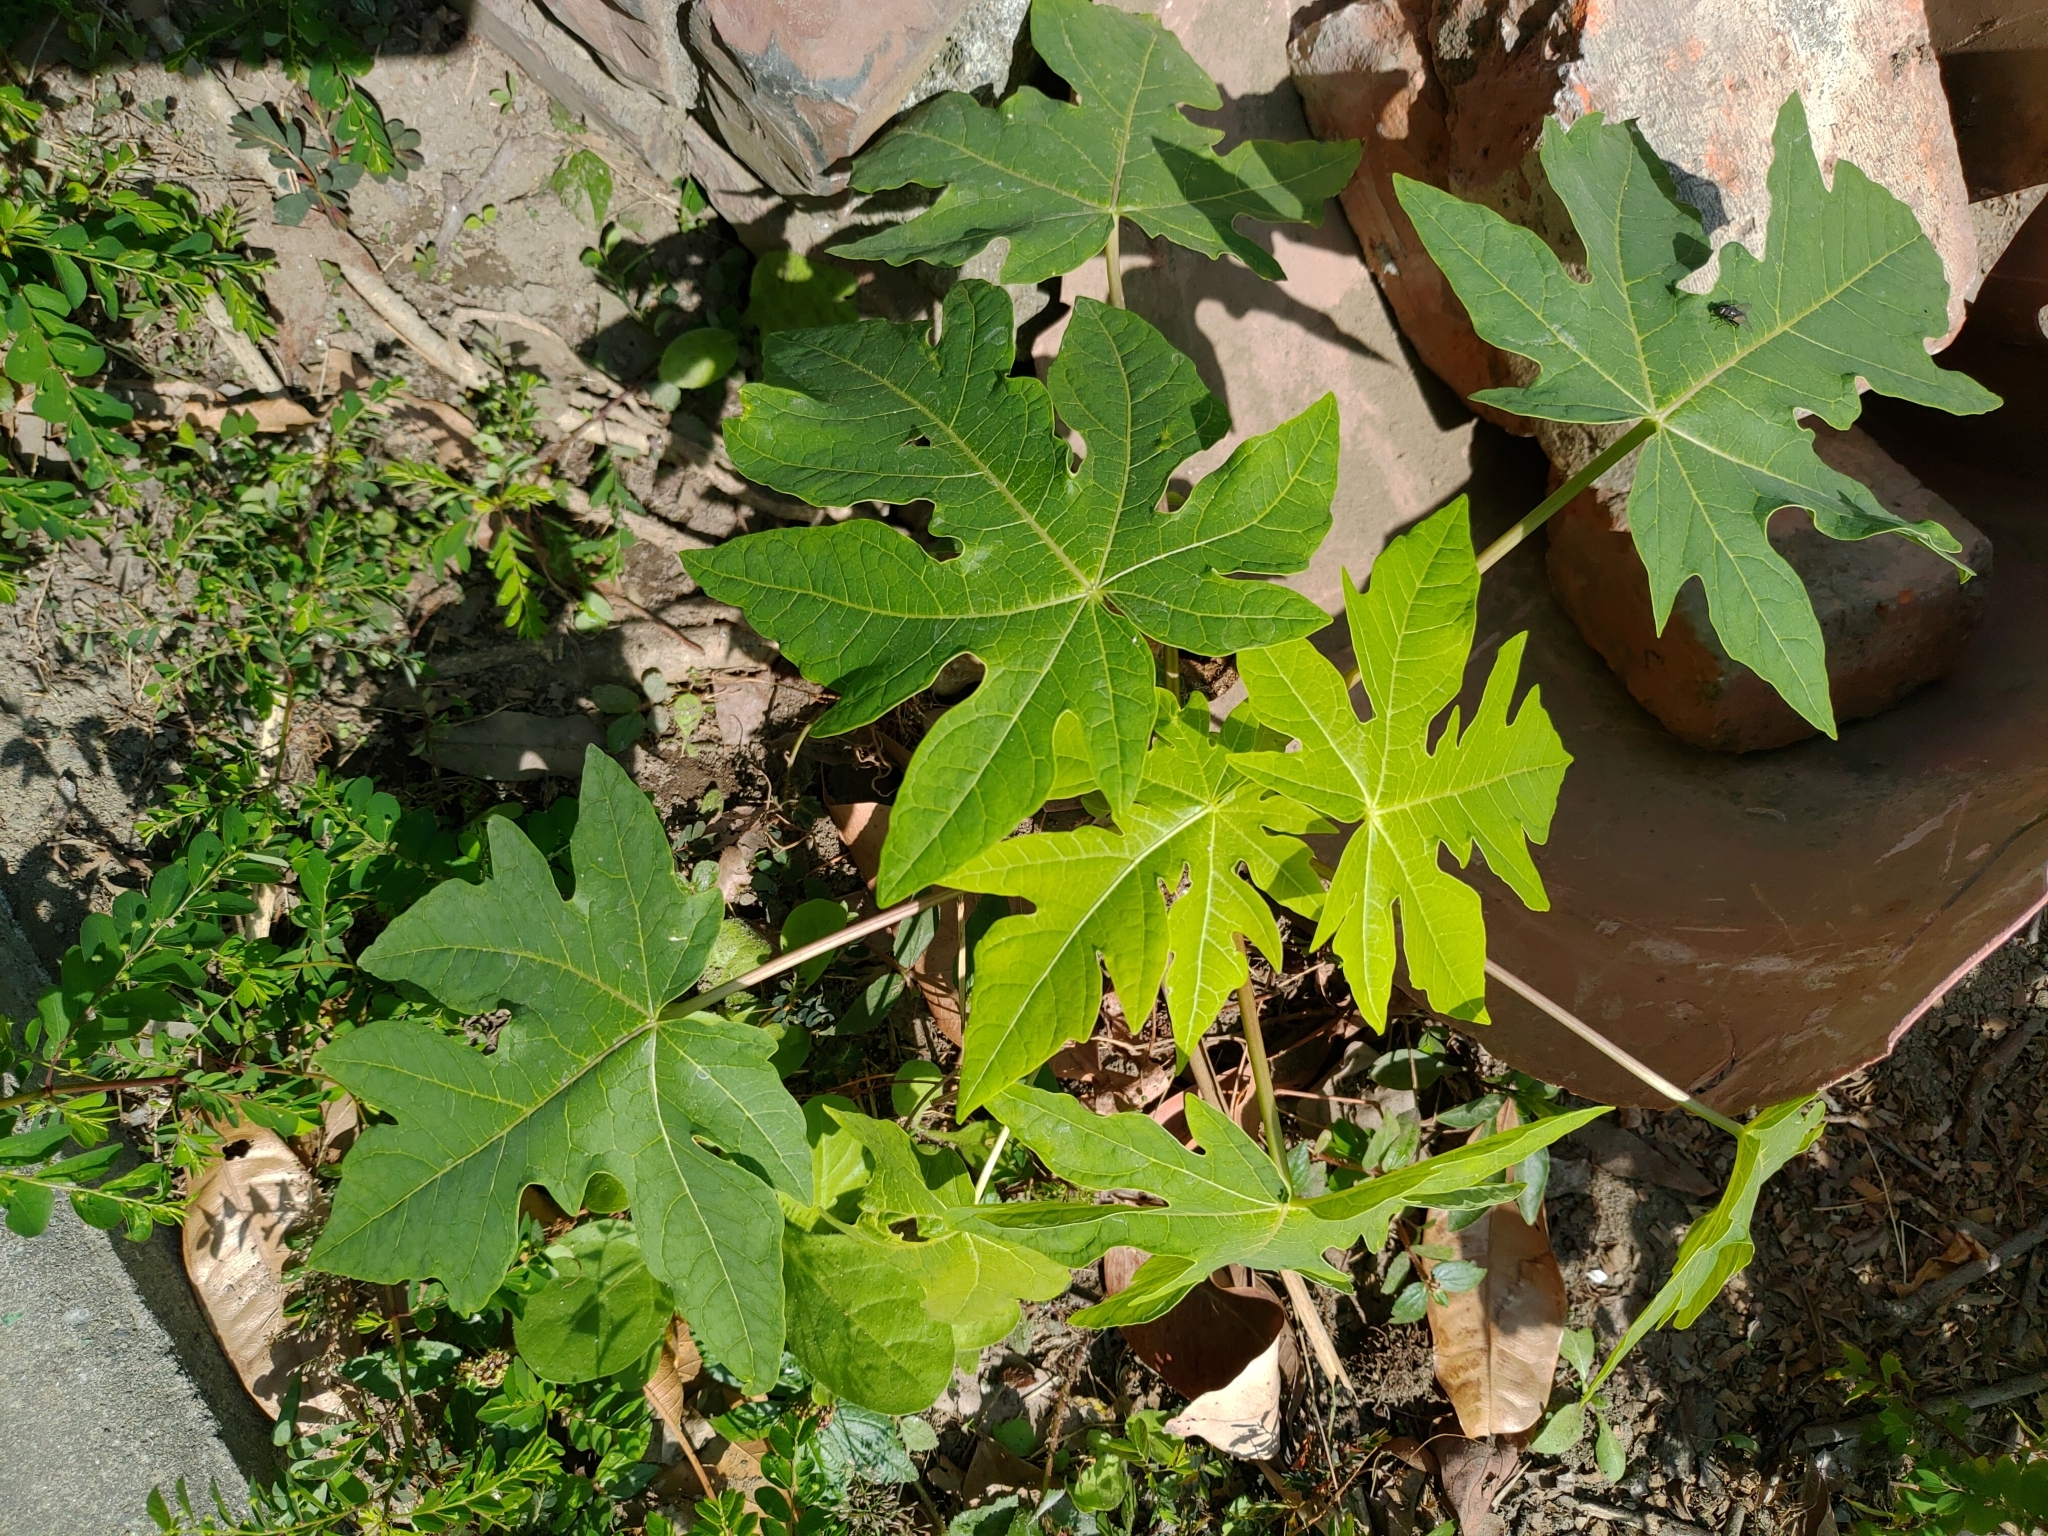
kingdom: Plantae
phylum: Tracheophyta
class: Magnoliopsida
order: Brassicales
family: Caricaceae
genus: Carica
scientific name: Carica papaya
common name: Papaya
